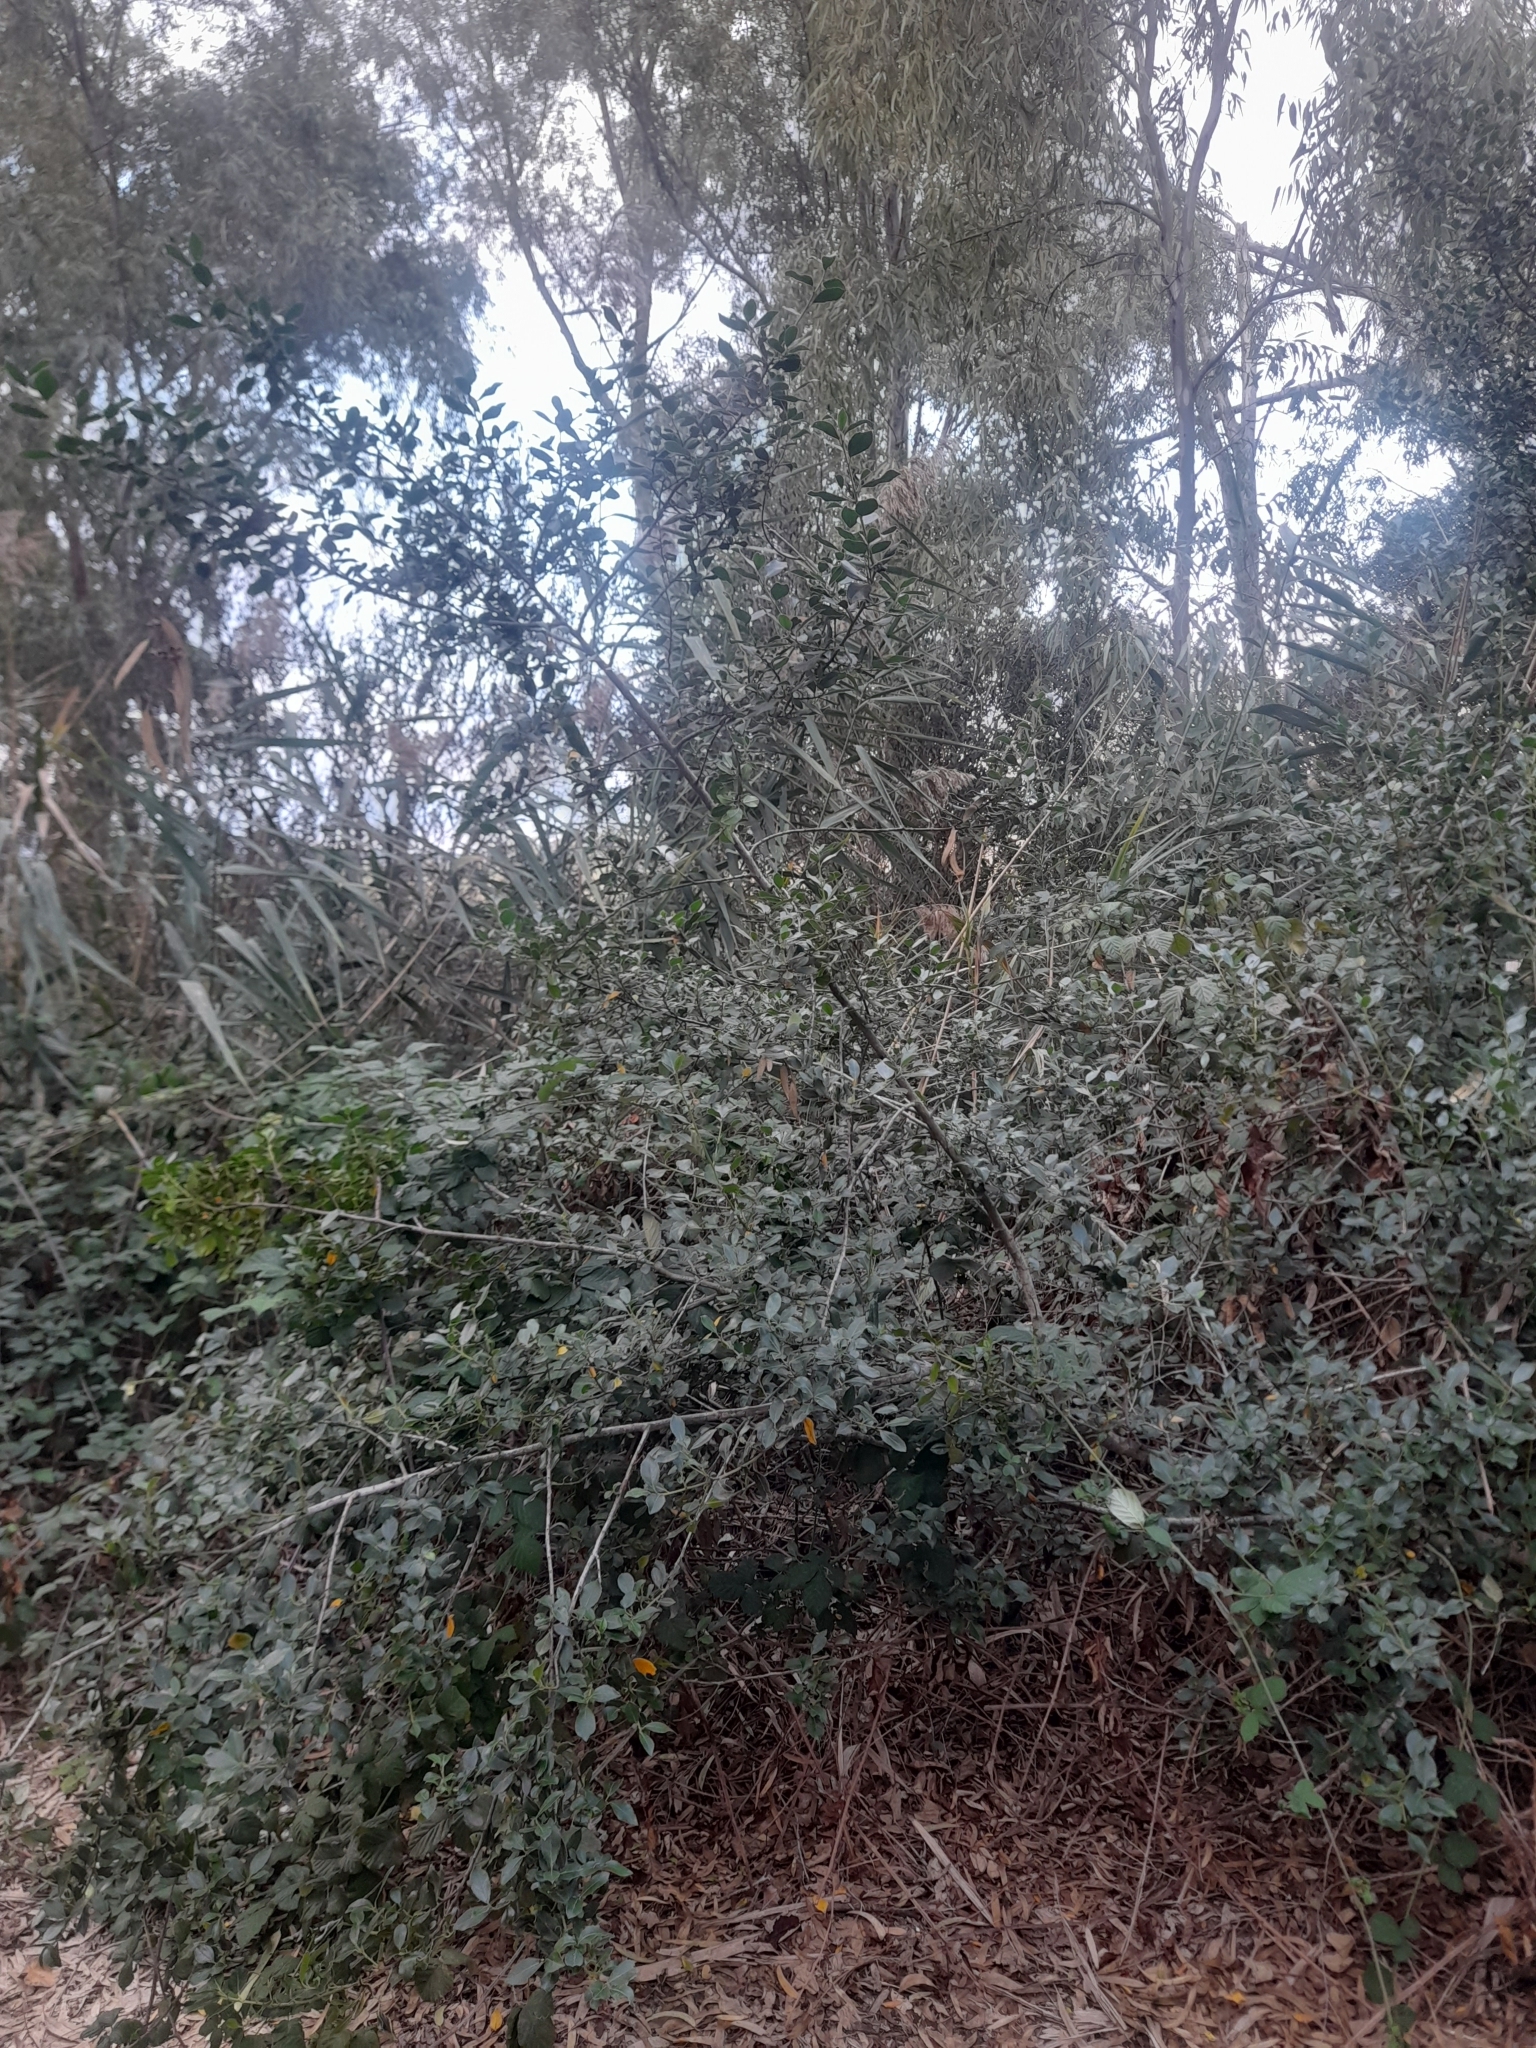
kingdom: Plantae
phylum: Tracheophyta
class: Magnoliopsida
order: Rosales
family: Rhamnaceae
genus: Rhamnus
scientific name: Rhamnus alaternus
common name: Mediterranean buckthorn
